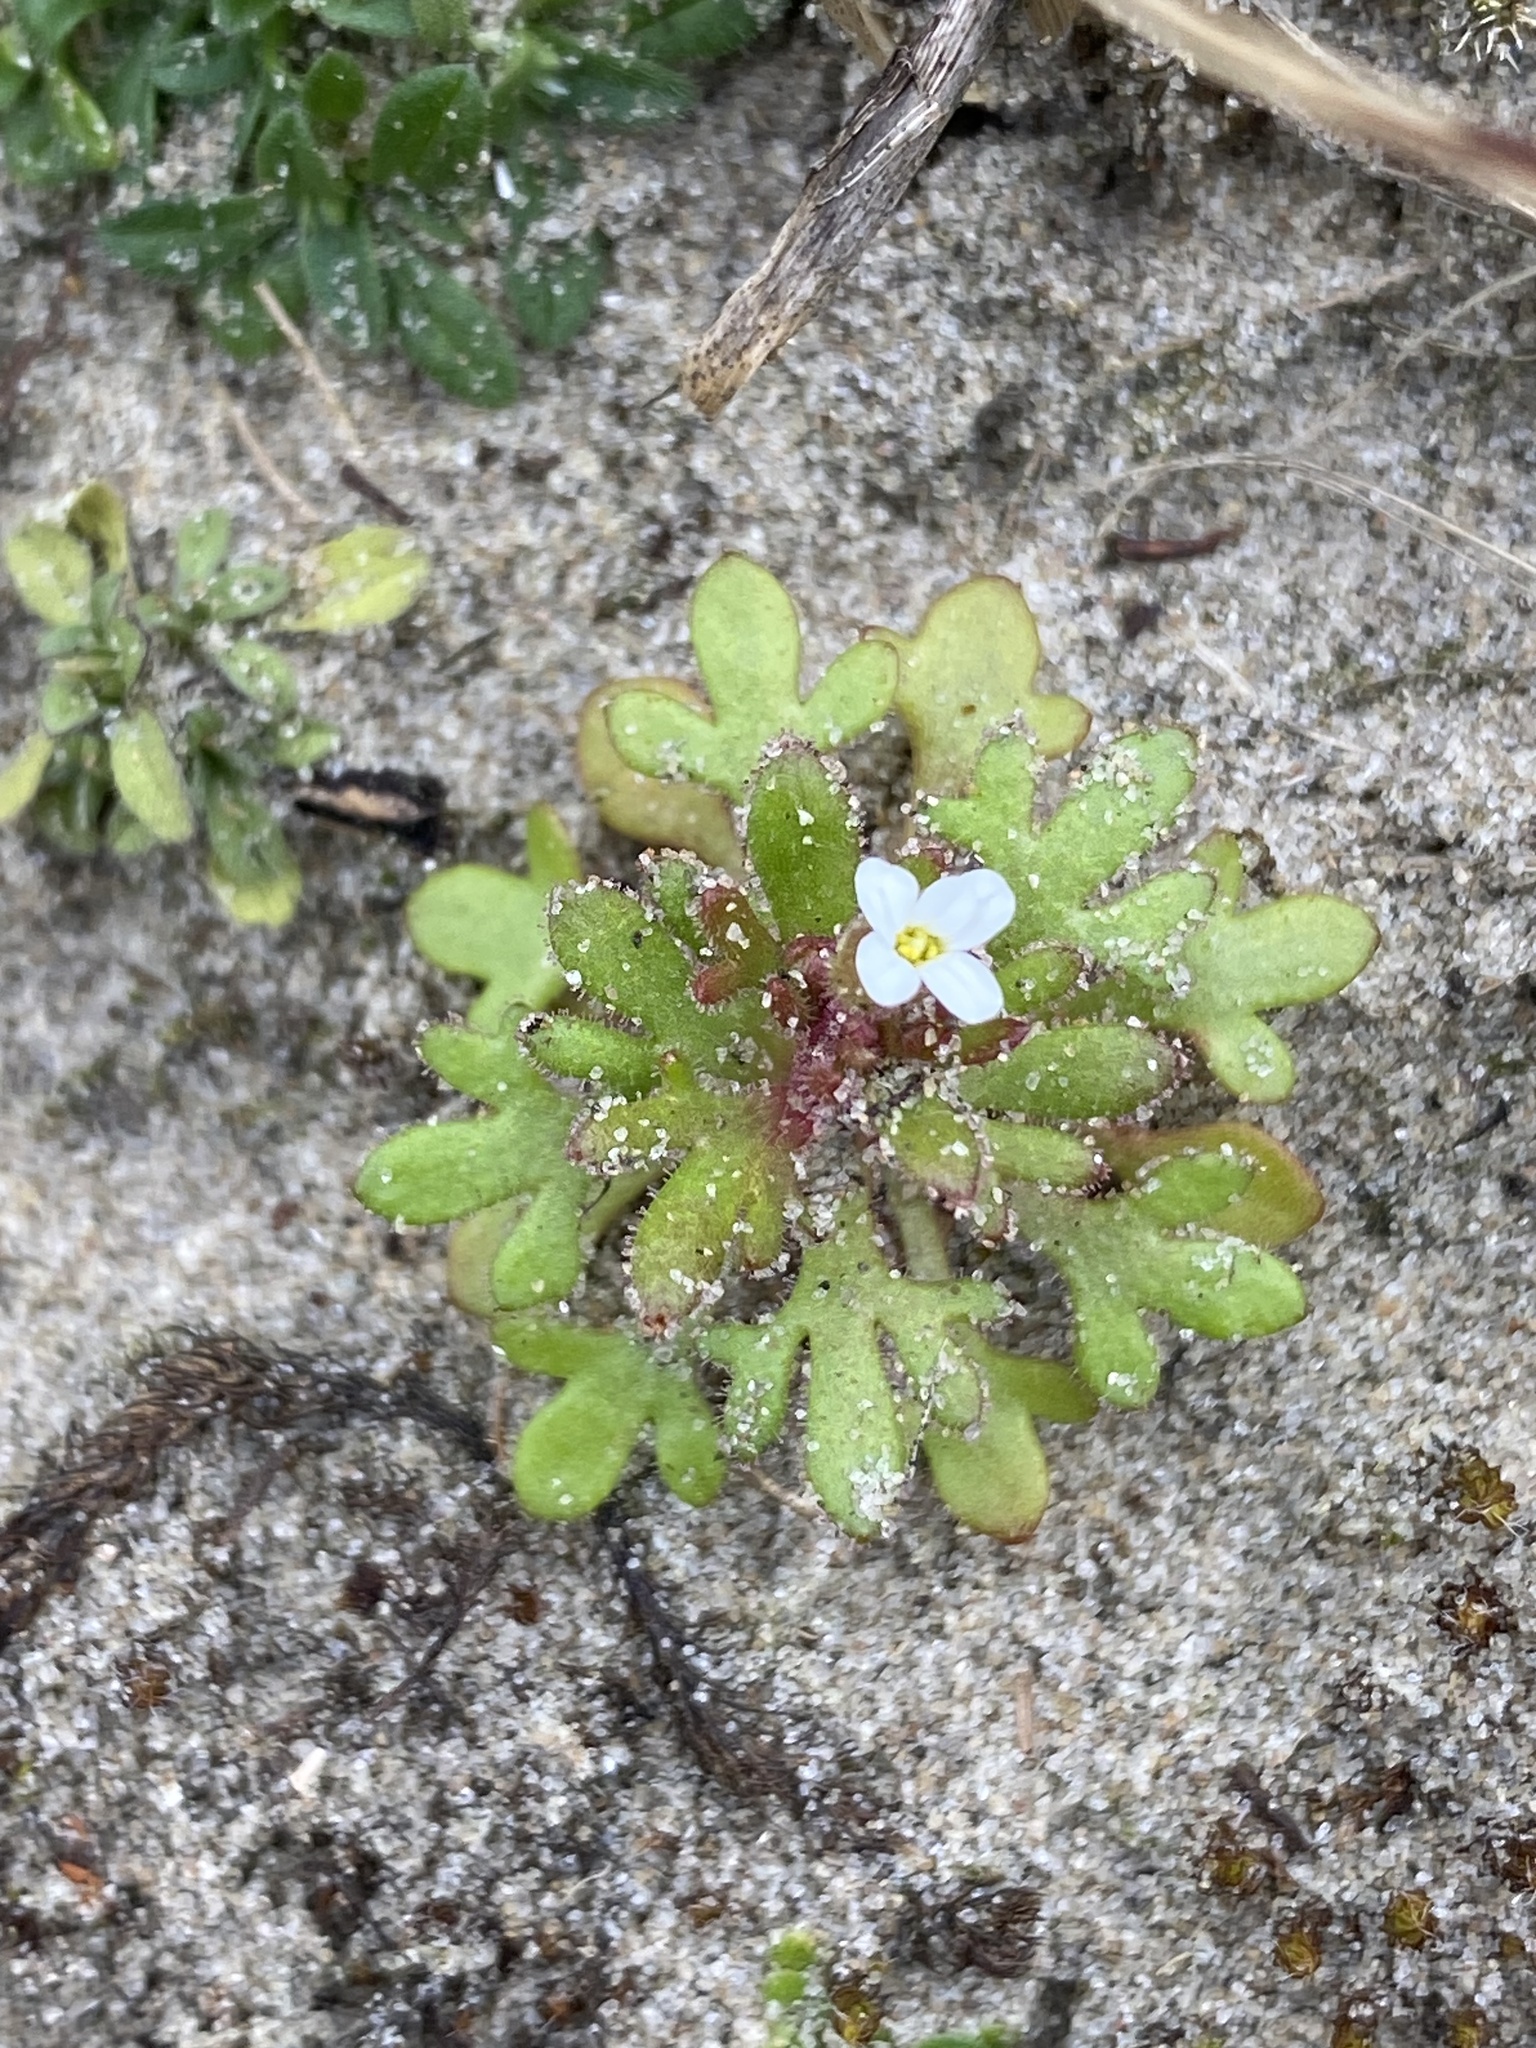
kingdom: Plantae
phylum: Tracheophyta
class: Magnoliopsida
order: Saxifragales
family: Saxifragaceae
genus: Saxifraga
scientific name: Saxifraga tridactylites
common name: Rue-leaved saxifrage
